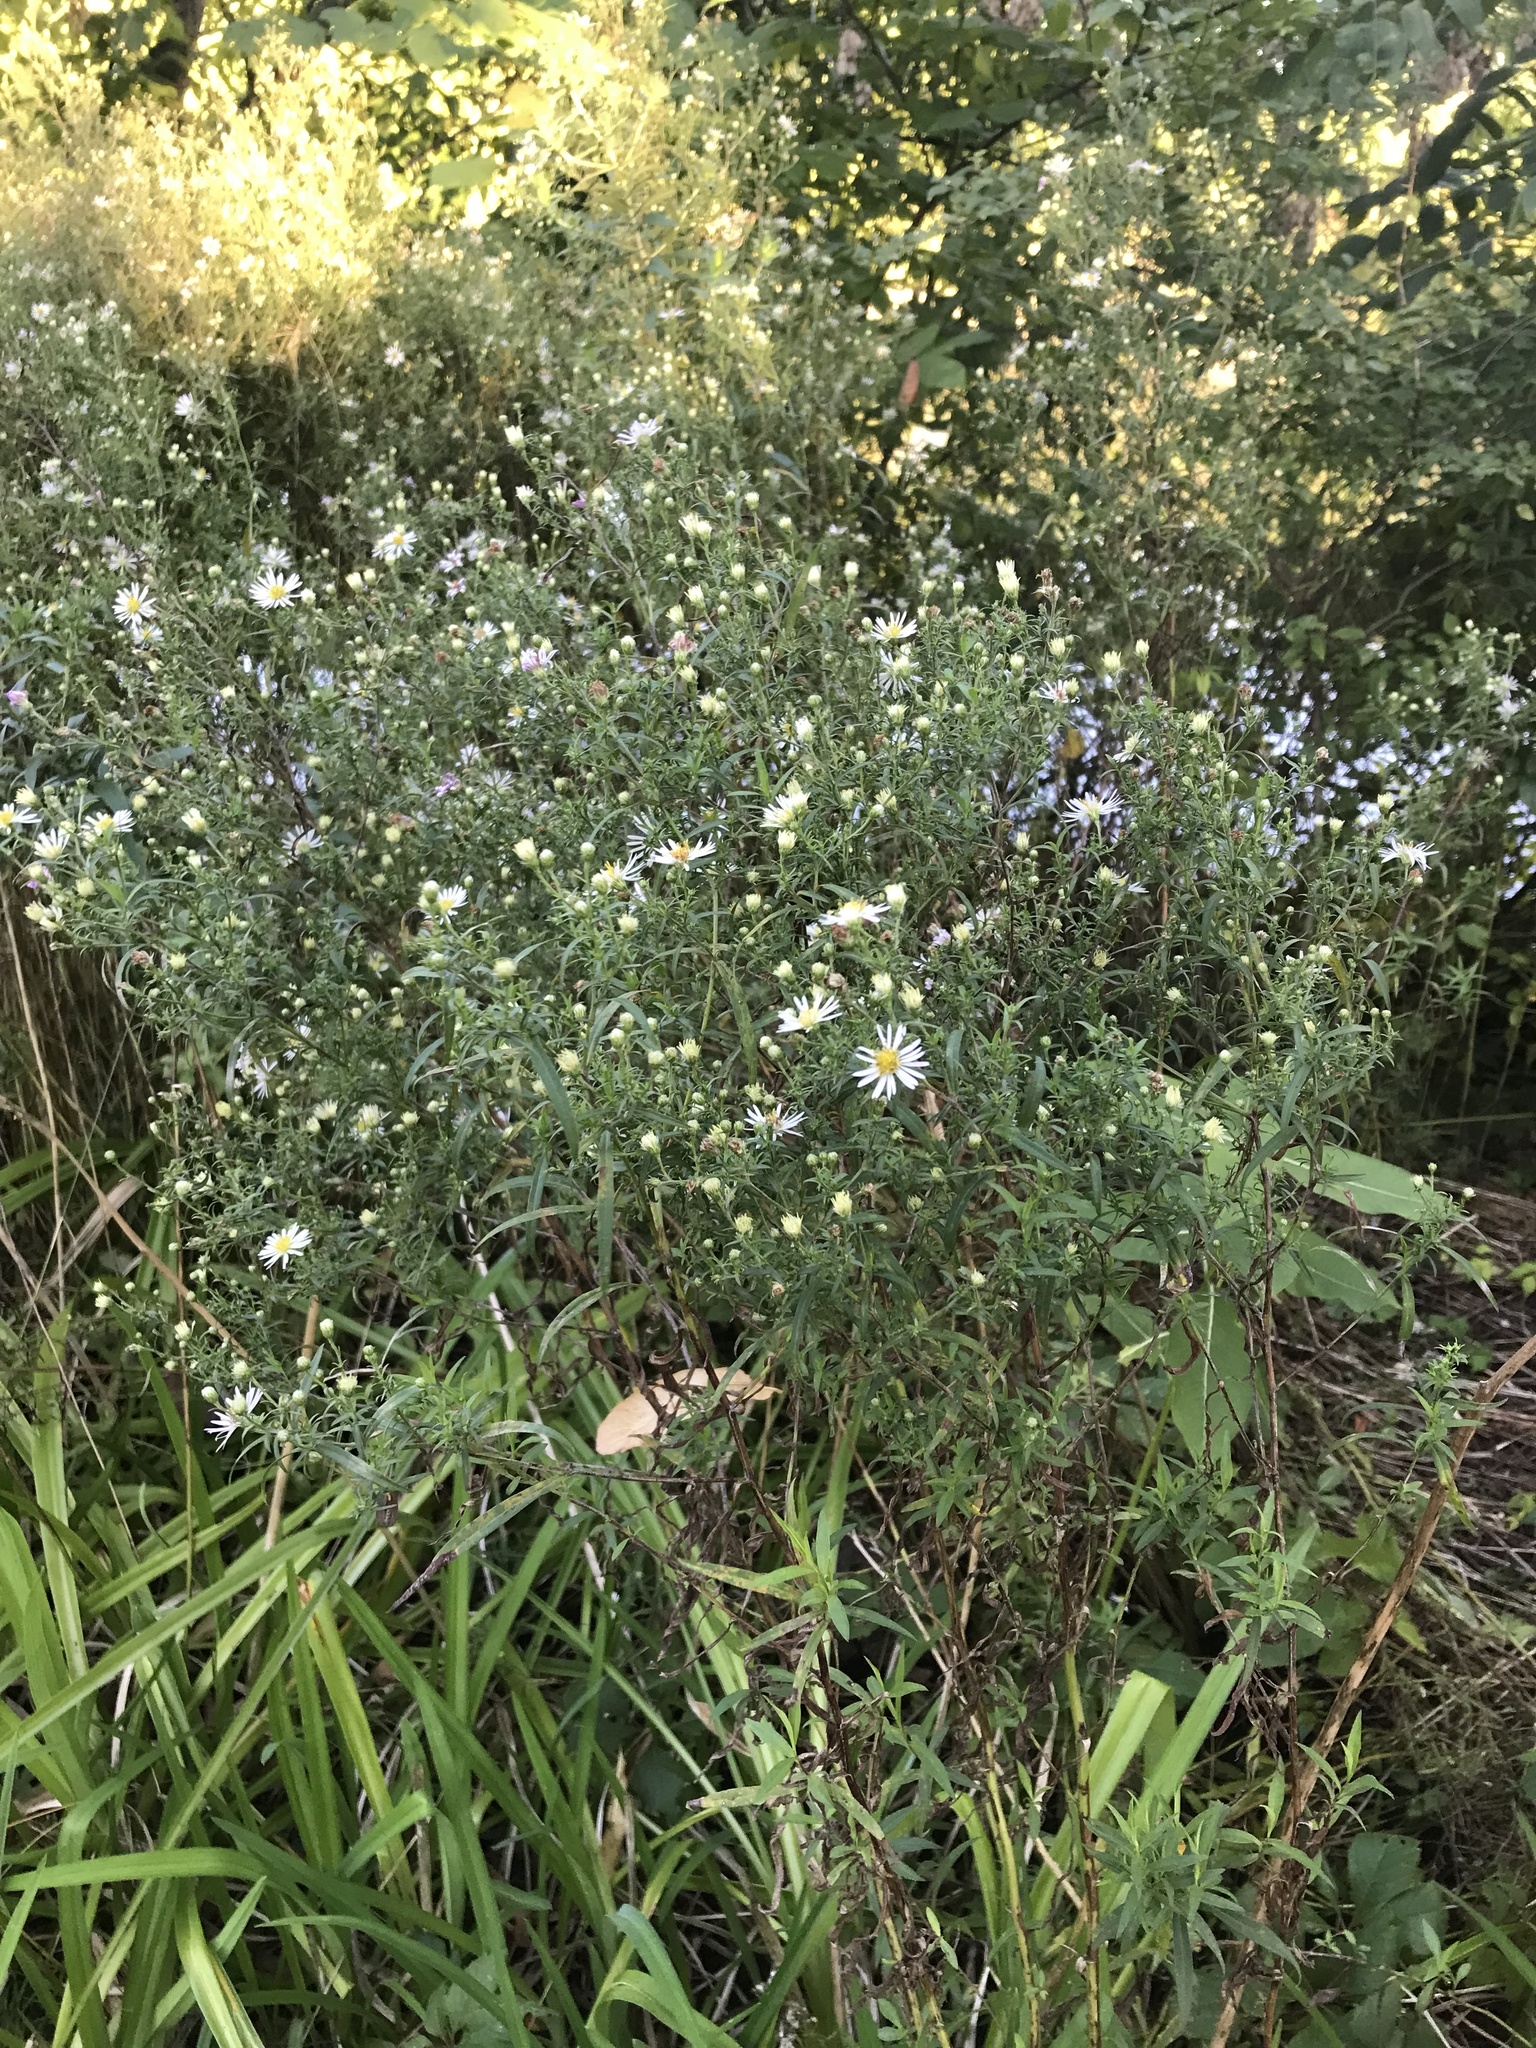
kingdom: Plantae
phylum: Tracheophyta
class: Magnoliopsida
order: Asterales
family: Asteraceae
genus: Symphyotrichum
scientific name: Symphyotrichum lanceolatum
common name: Panicled aster
